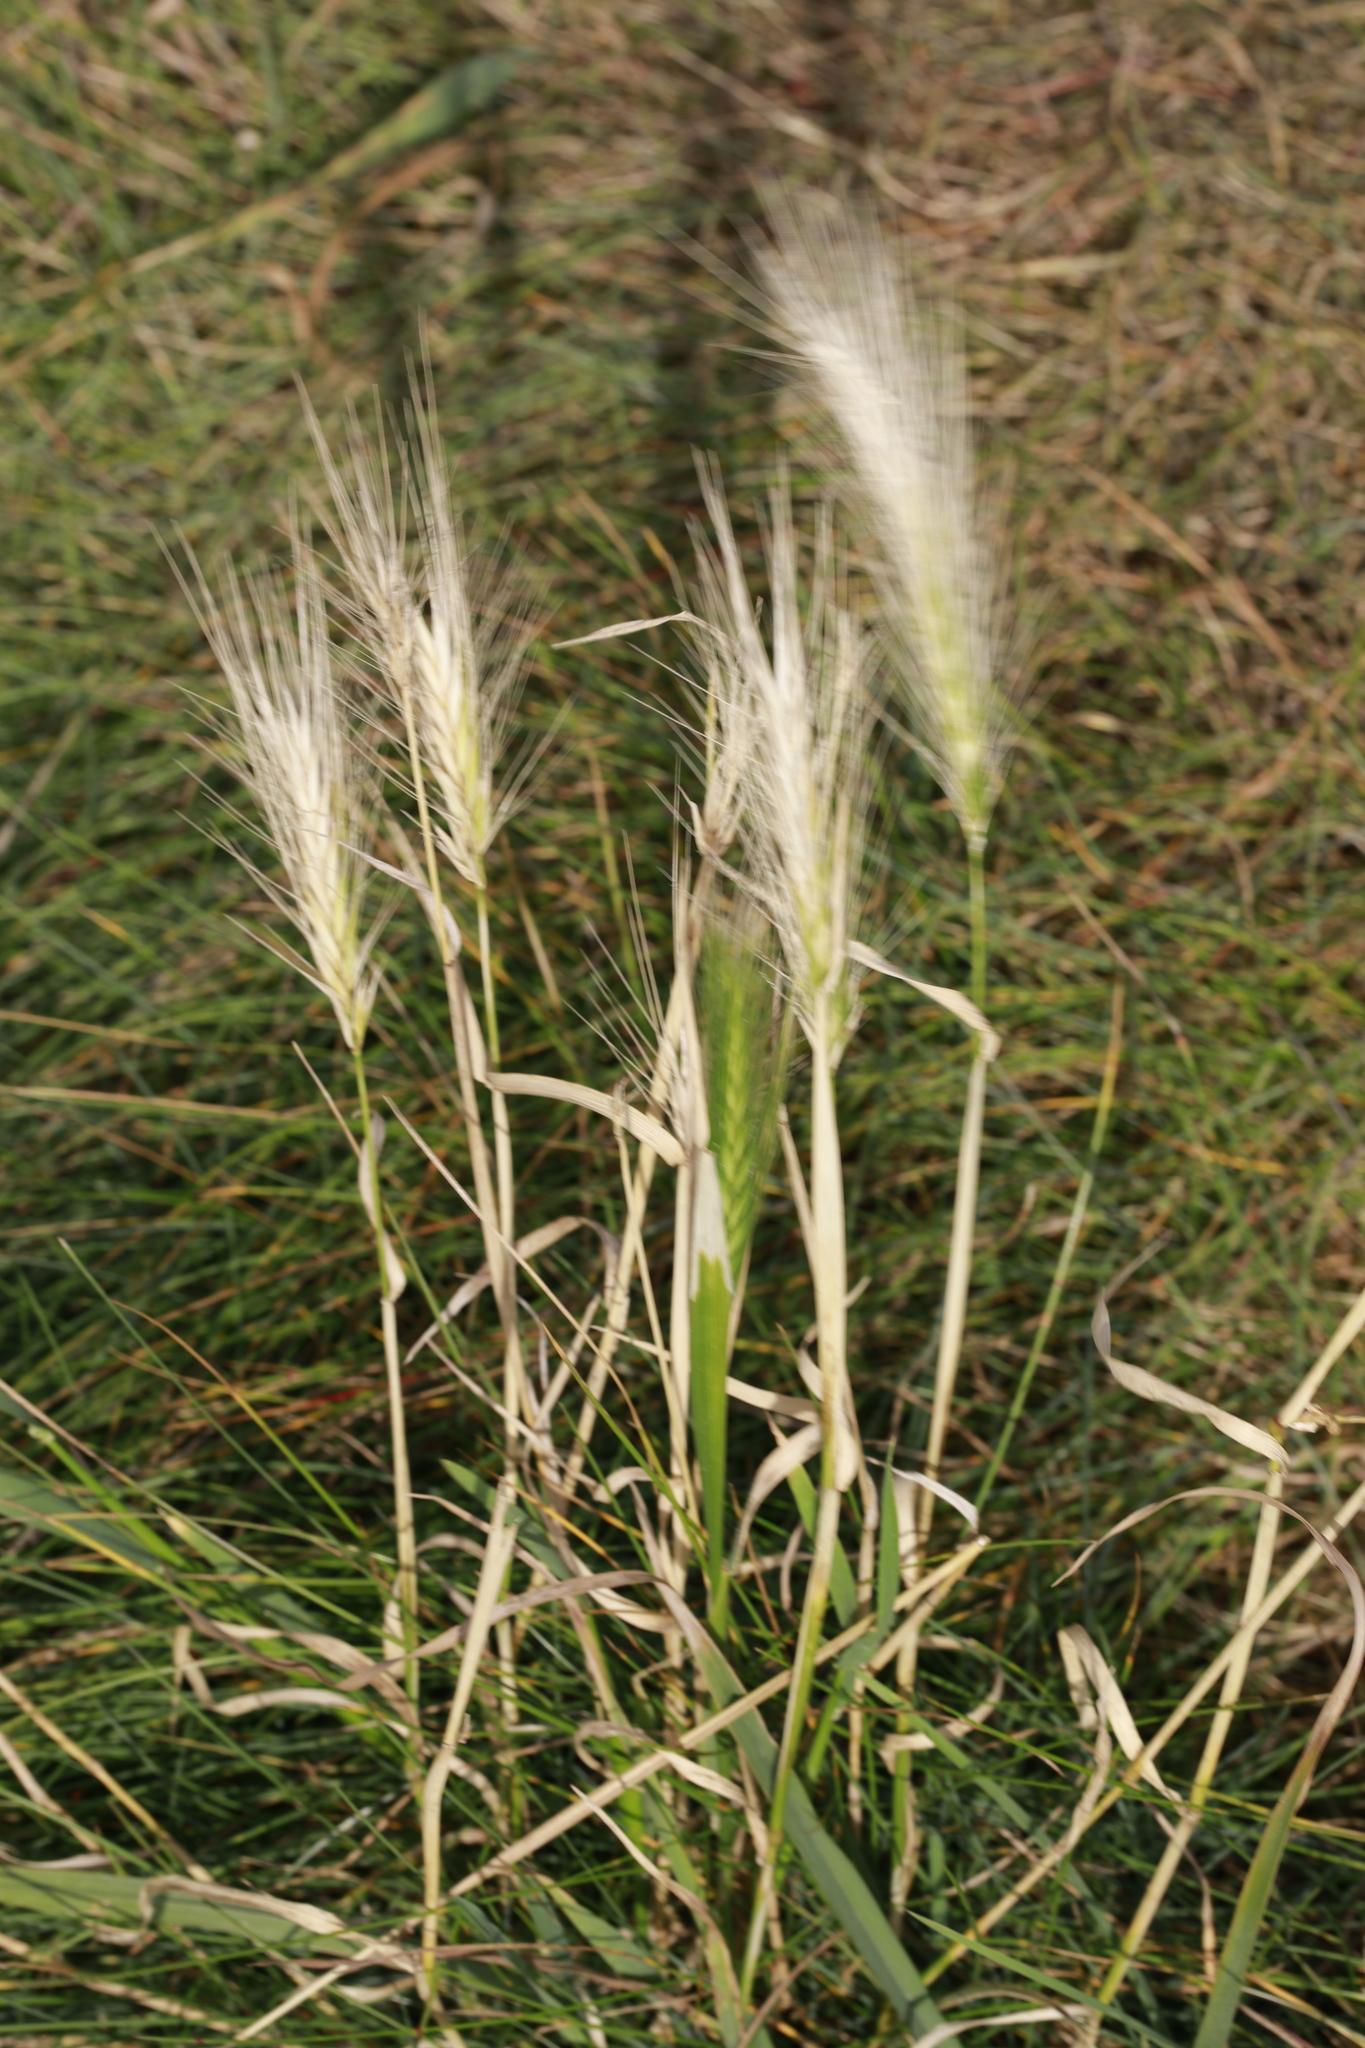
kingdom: Plantae
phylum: Tracheophyta
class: Liliopsida
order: Poales
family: Poaceae
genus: Hordeum
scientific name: Hordeum murinum
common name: Wall barley
